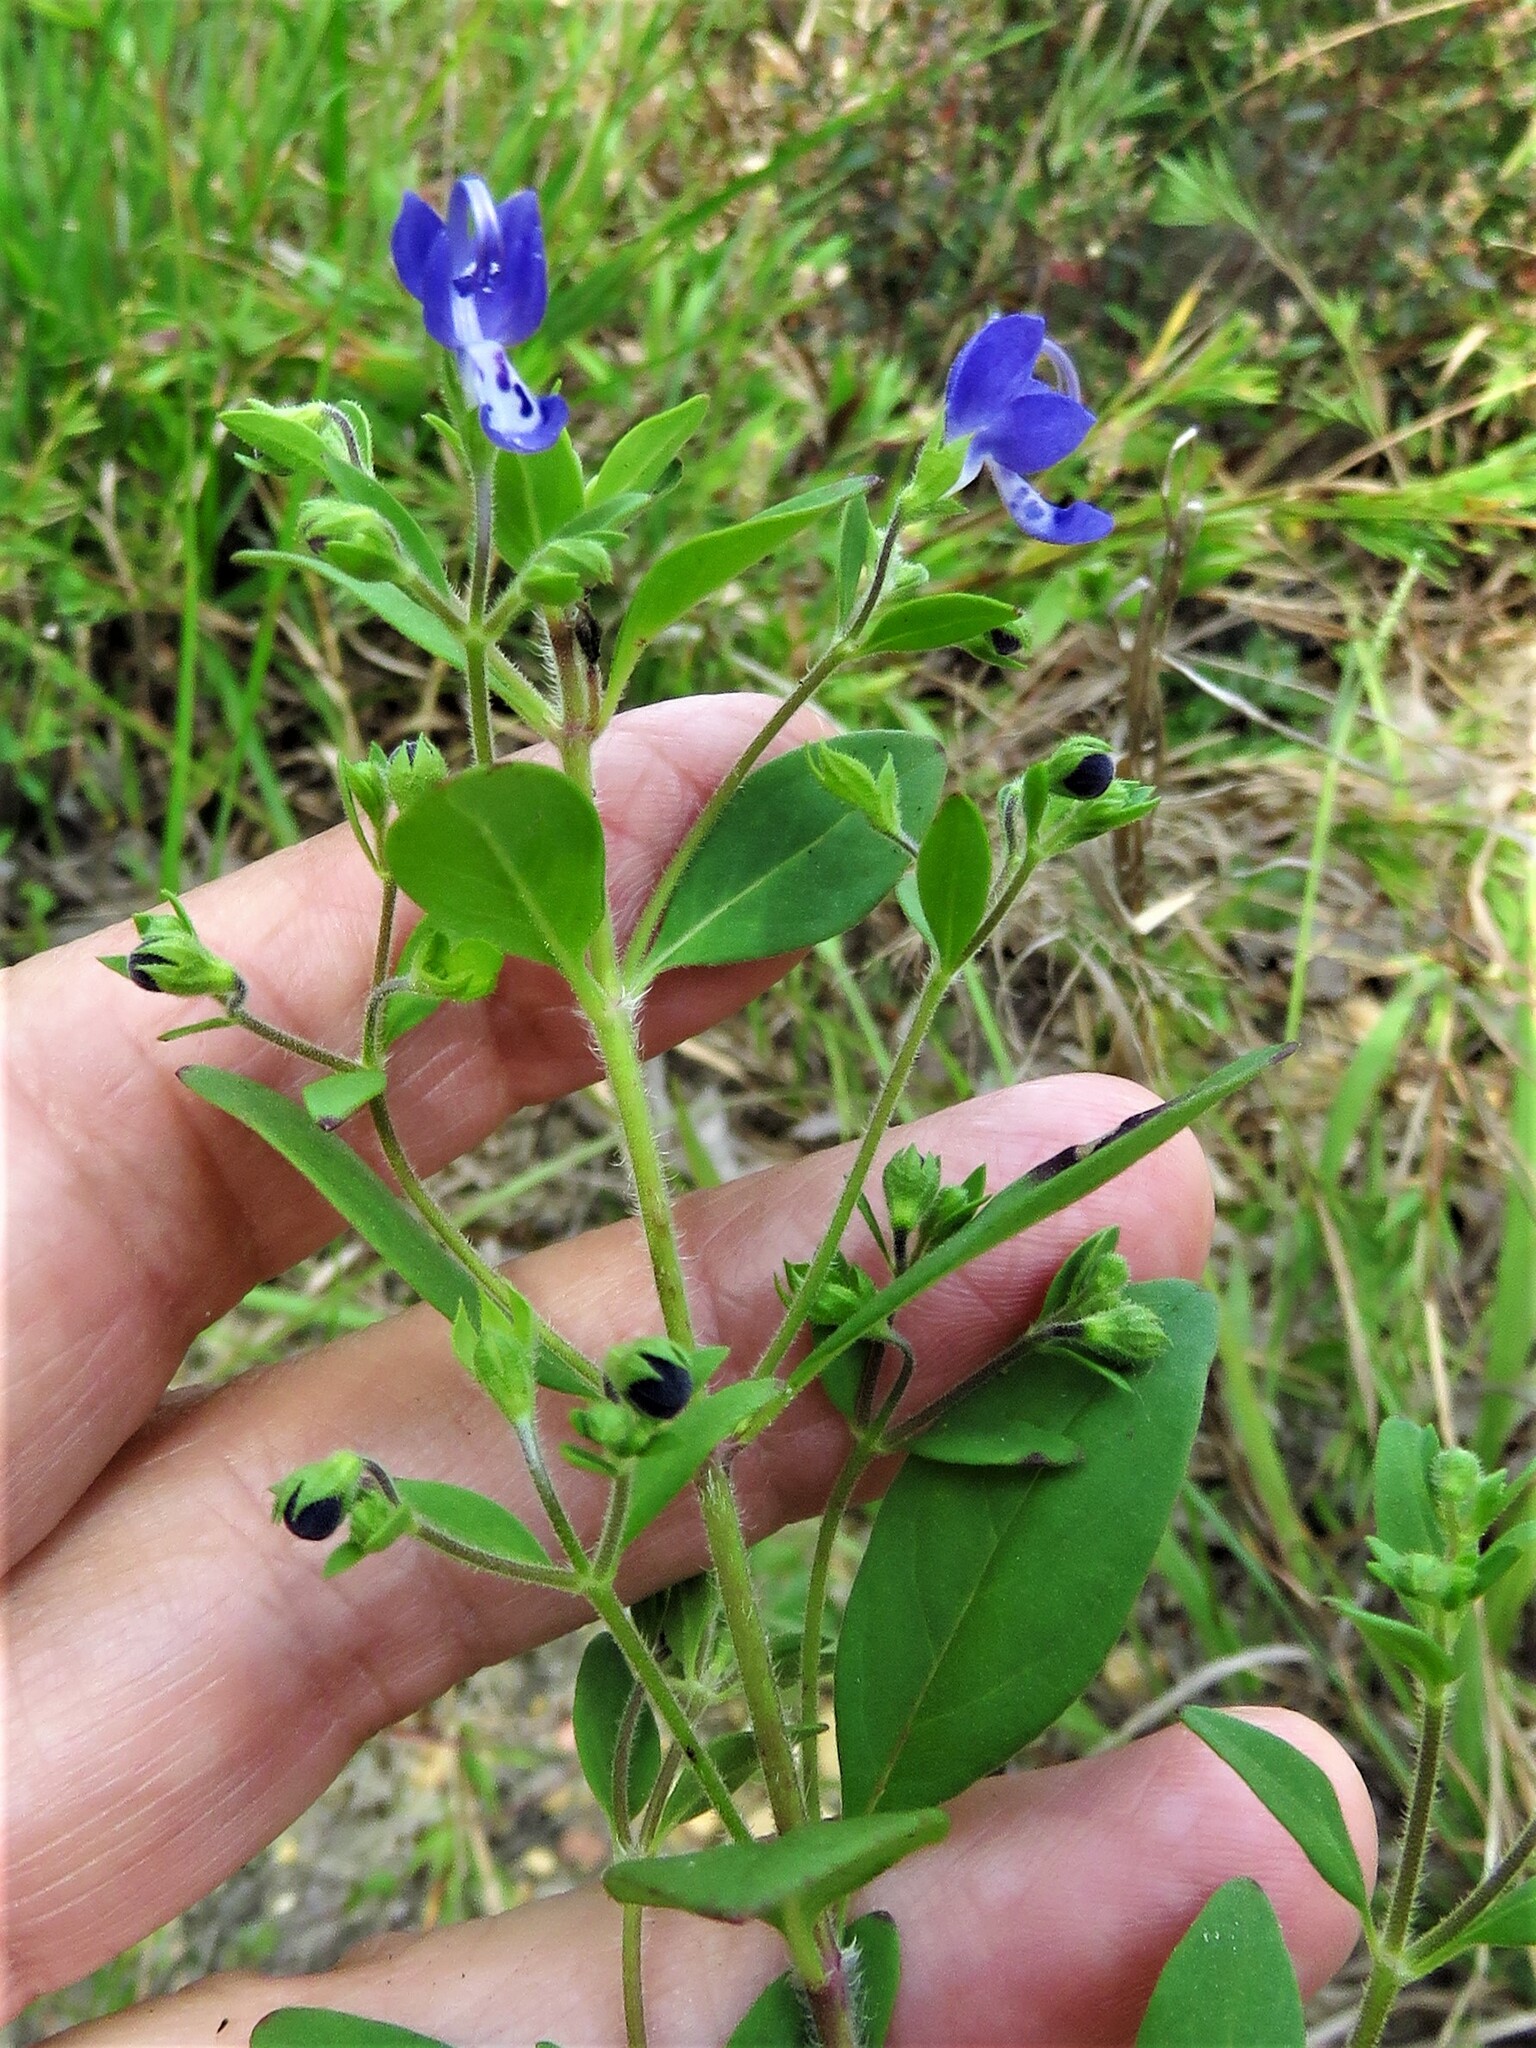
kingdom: Plantae
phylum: Tracheophyta
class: Magnoliopsida
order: Lamiales
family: Lamiaceae
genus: Trichostema
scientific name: Trichostema dichotomum
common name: Bastard pennyroyal
